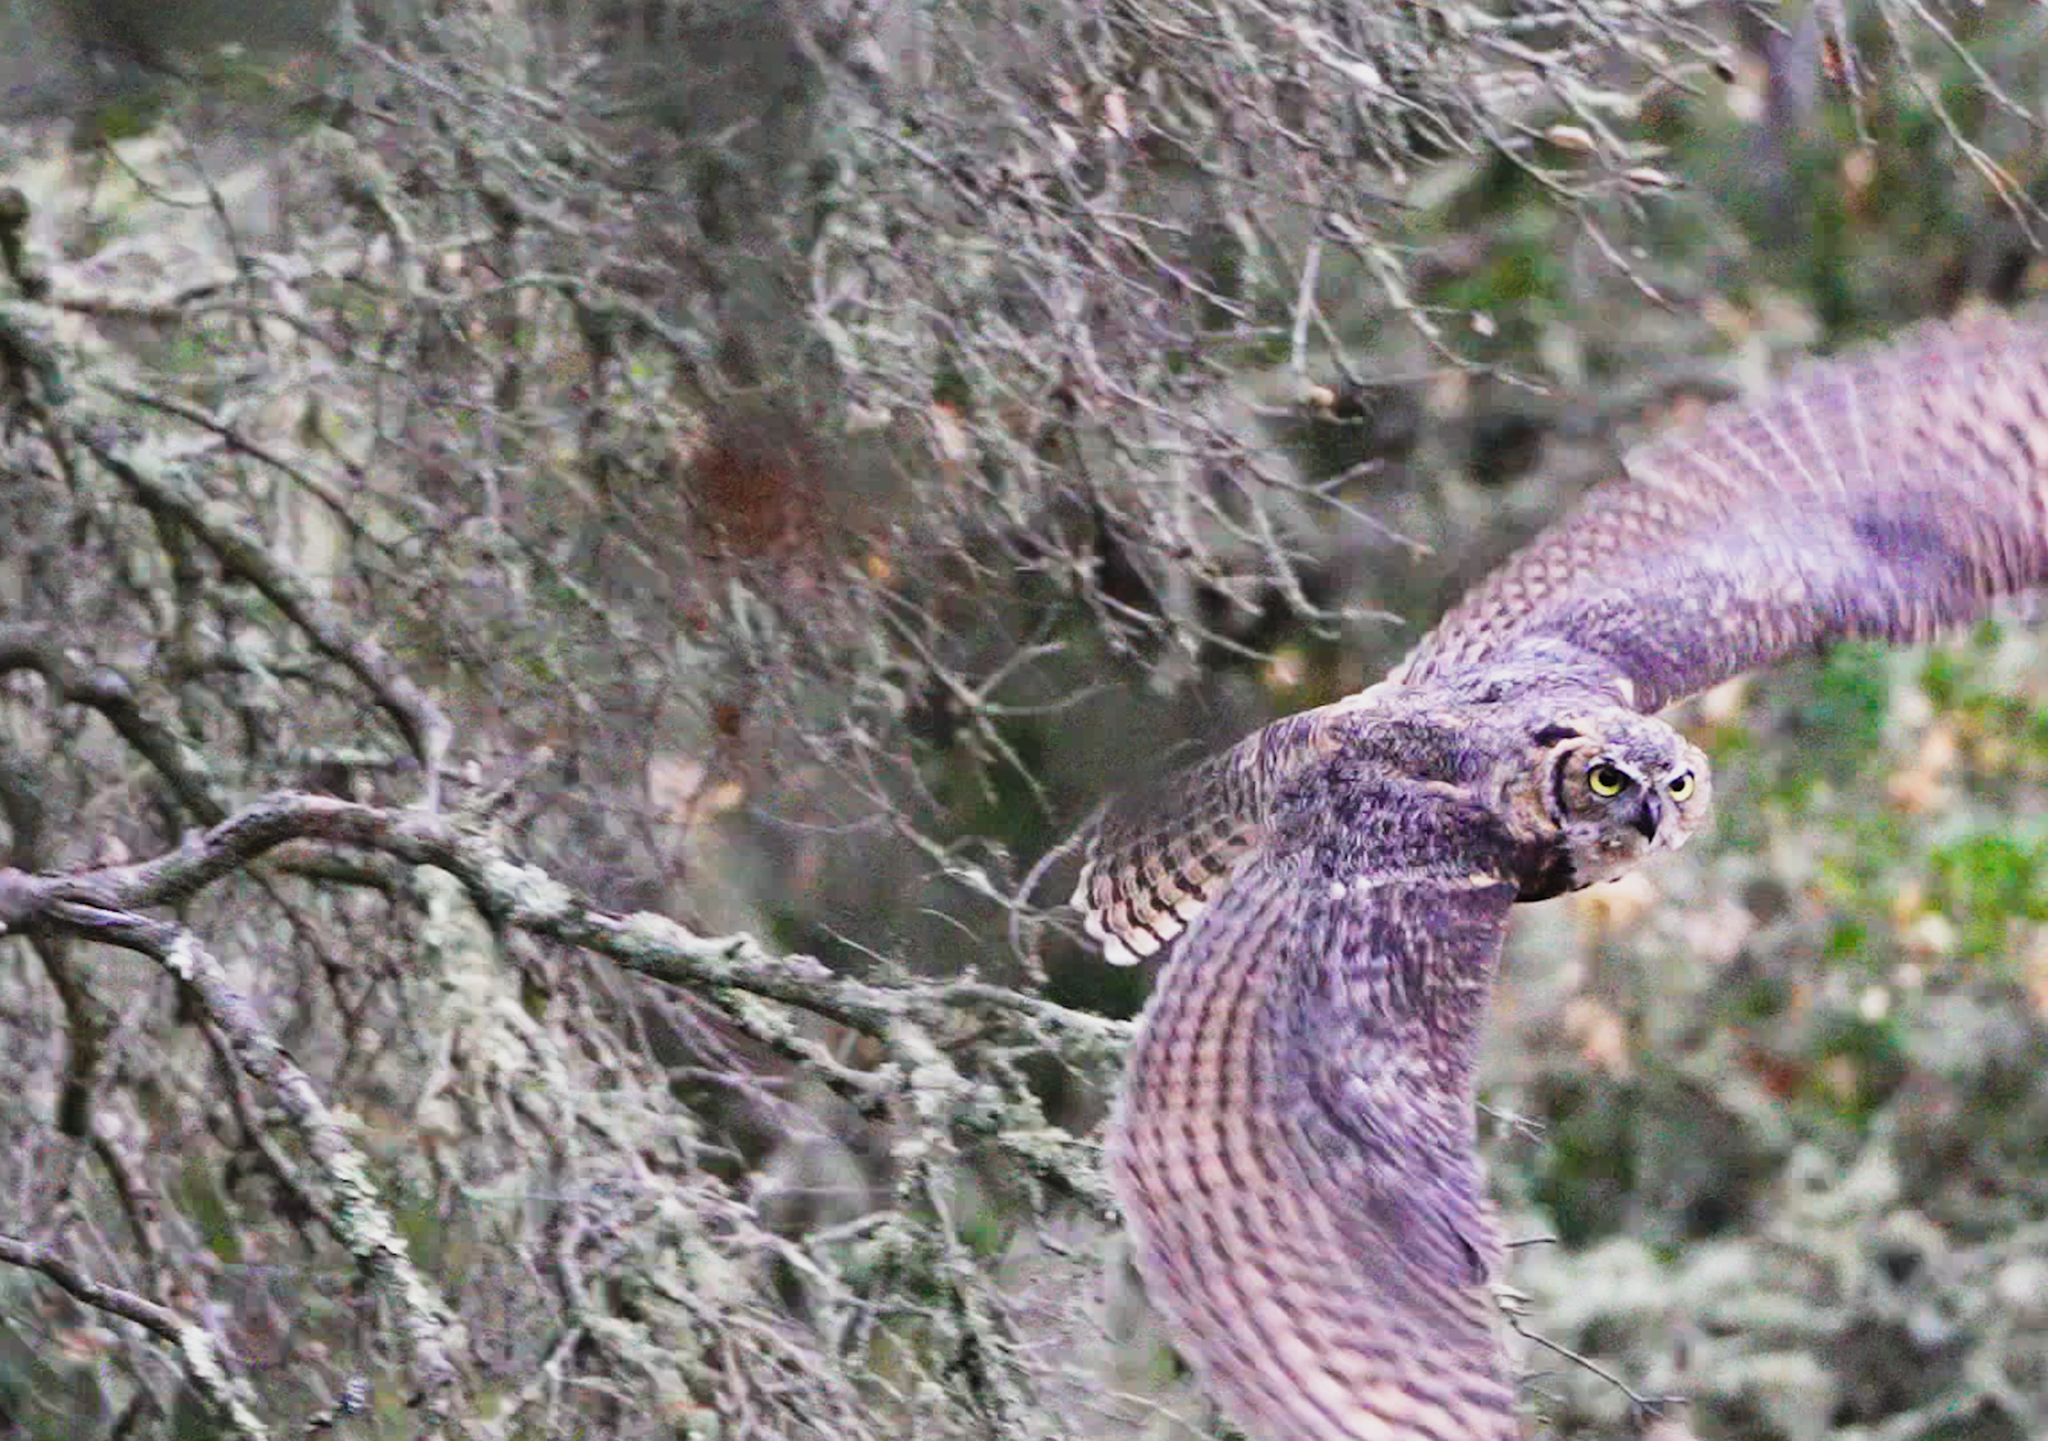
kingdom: Animalia
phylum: Chordata
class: Aves
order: Strigiformes
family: Strigidae
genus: Bubo
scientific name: Bubo virginianus
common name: Great horned owl
